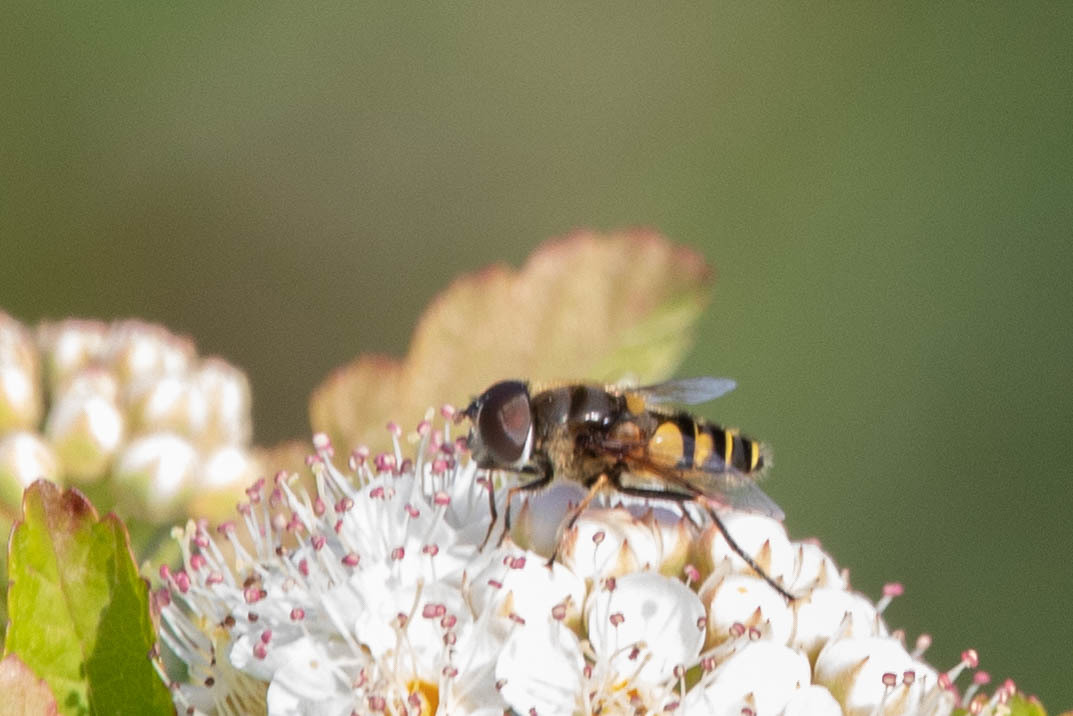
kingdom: Animalia
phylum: Arthropoda
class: Insecta
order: Diptera
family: Syrphidae
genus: Eristalis
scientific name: Eristalis transversa
